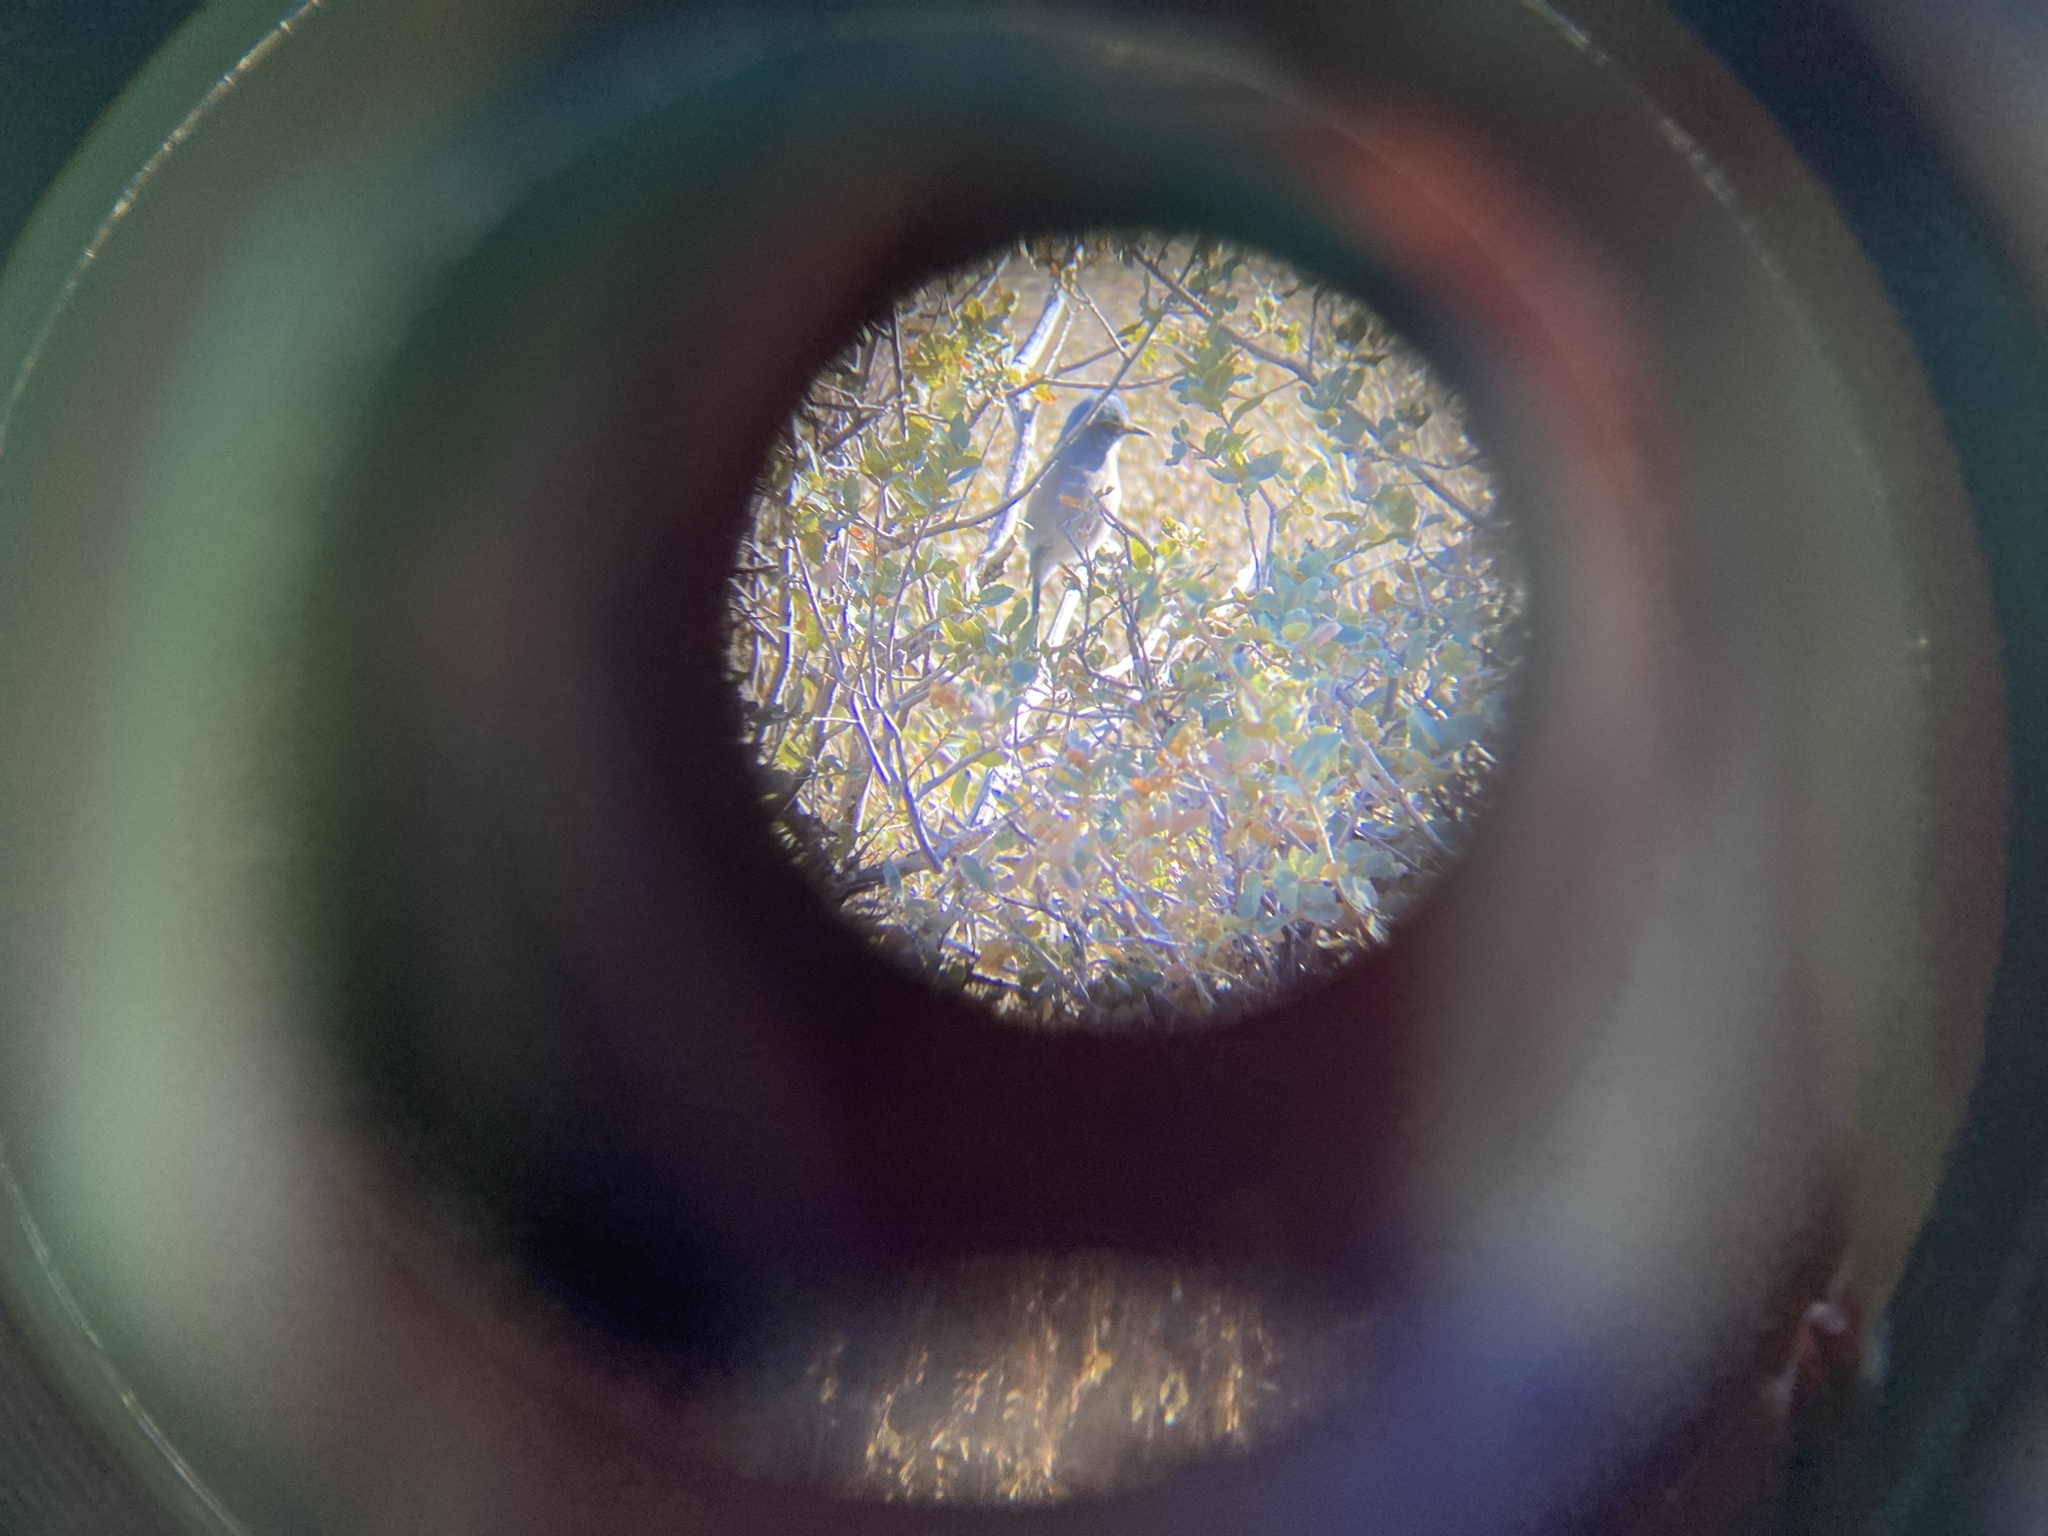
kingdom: Animalia
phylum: Chordata
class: Aves
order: Passeriformes
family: Corvidae
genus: Aphelocoma
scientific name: Aphelocoma woodhouseii
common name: Woodhouse's scrub-jay
